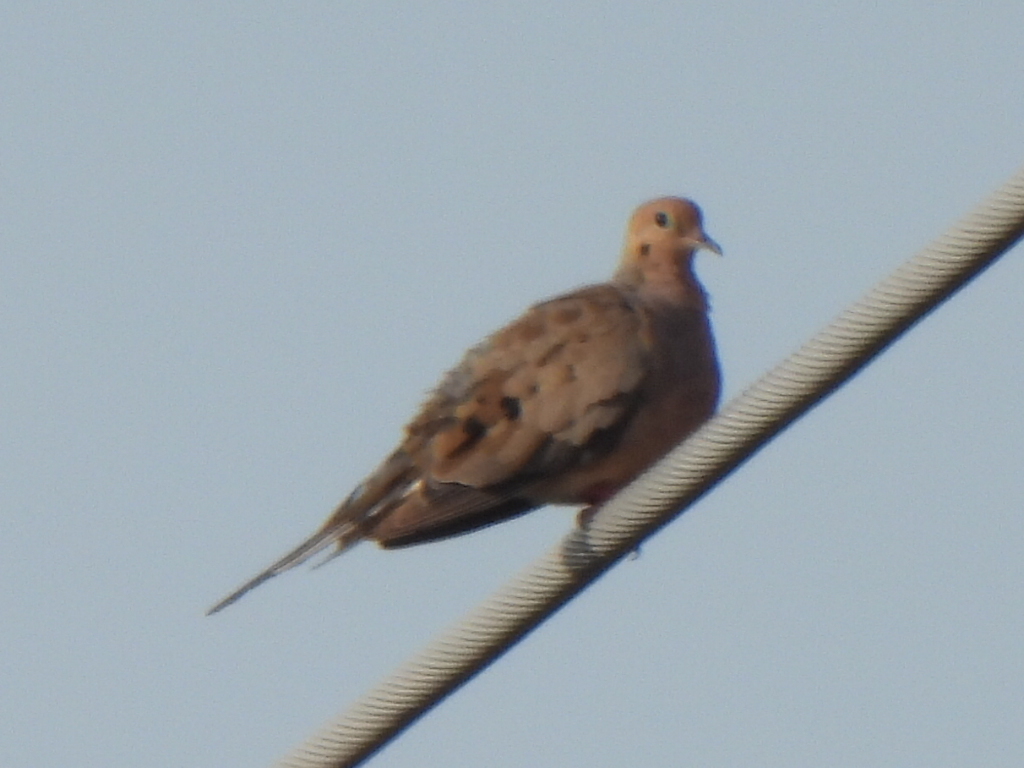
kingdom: Animalia
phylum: Chordata
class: Aves
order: Columbiformes
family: Columbidae
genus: Zenaida
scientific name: Zenaida macroura
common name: Mourning dove
